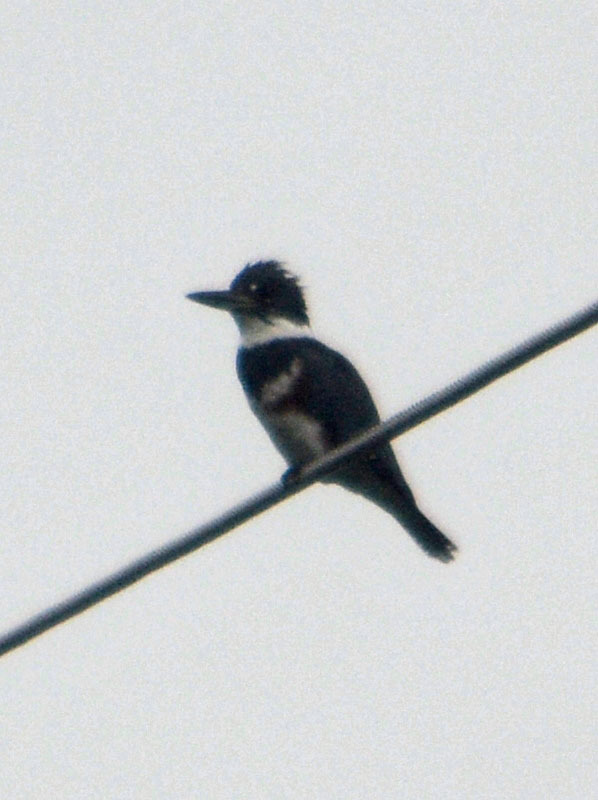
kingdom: Animalia
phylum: Chordata
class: Aves
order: Coraciiformes
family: Alcedinidae
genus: Megaceryle
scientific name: Megaceryle alcyon
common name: Belted kingfisher
